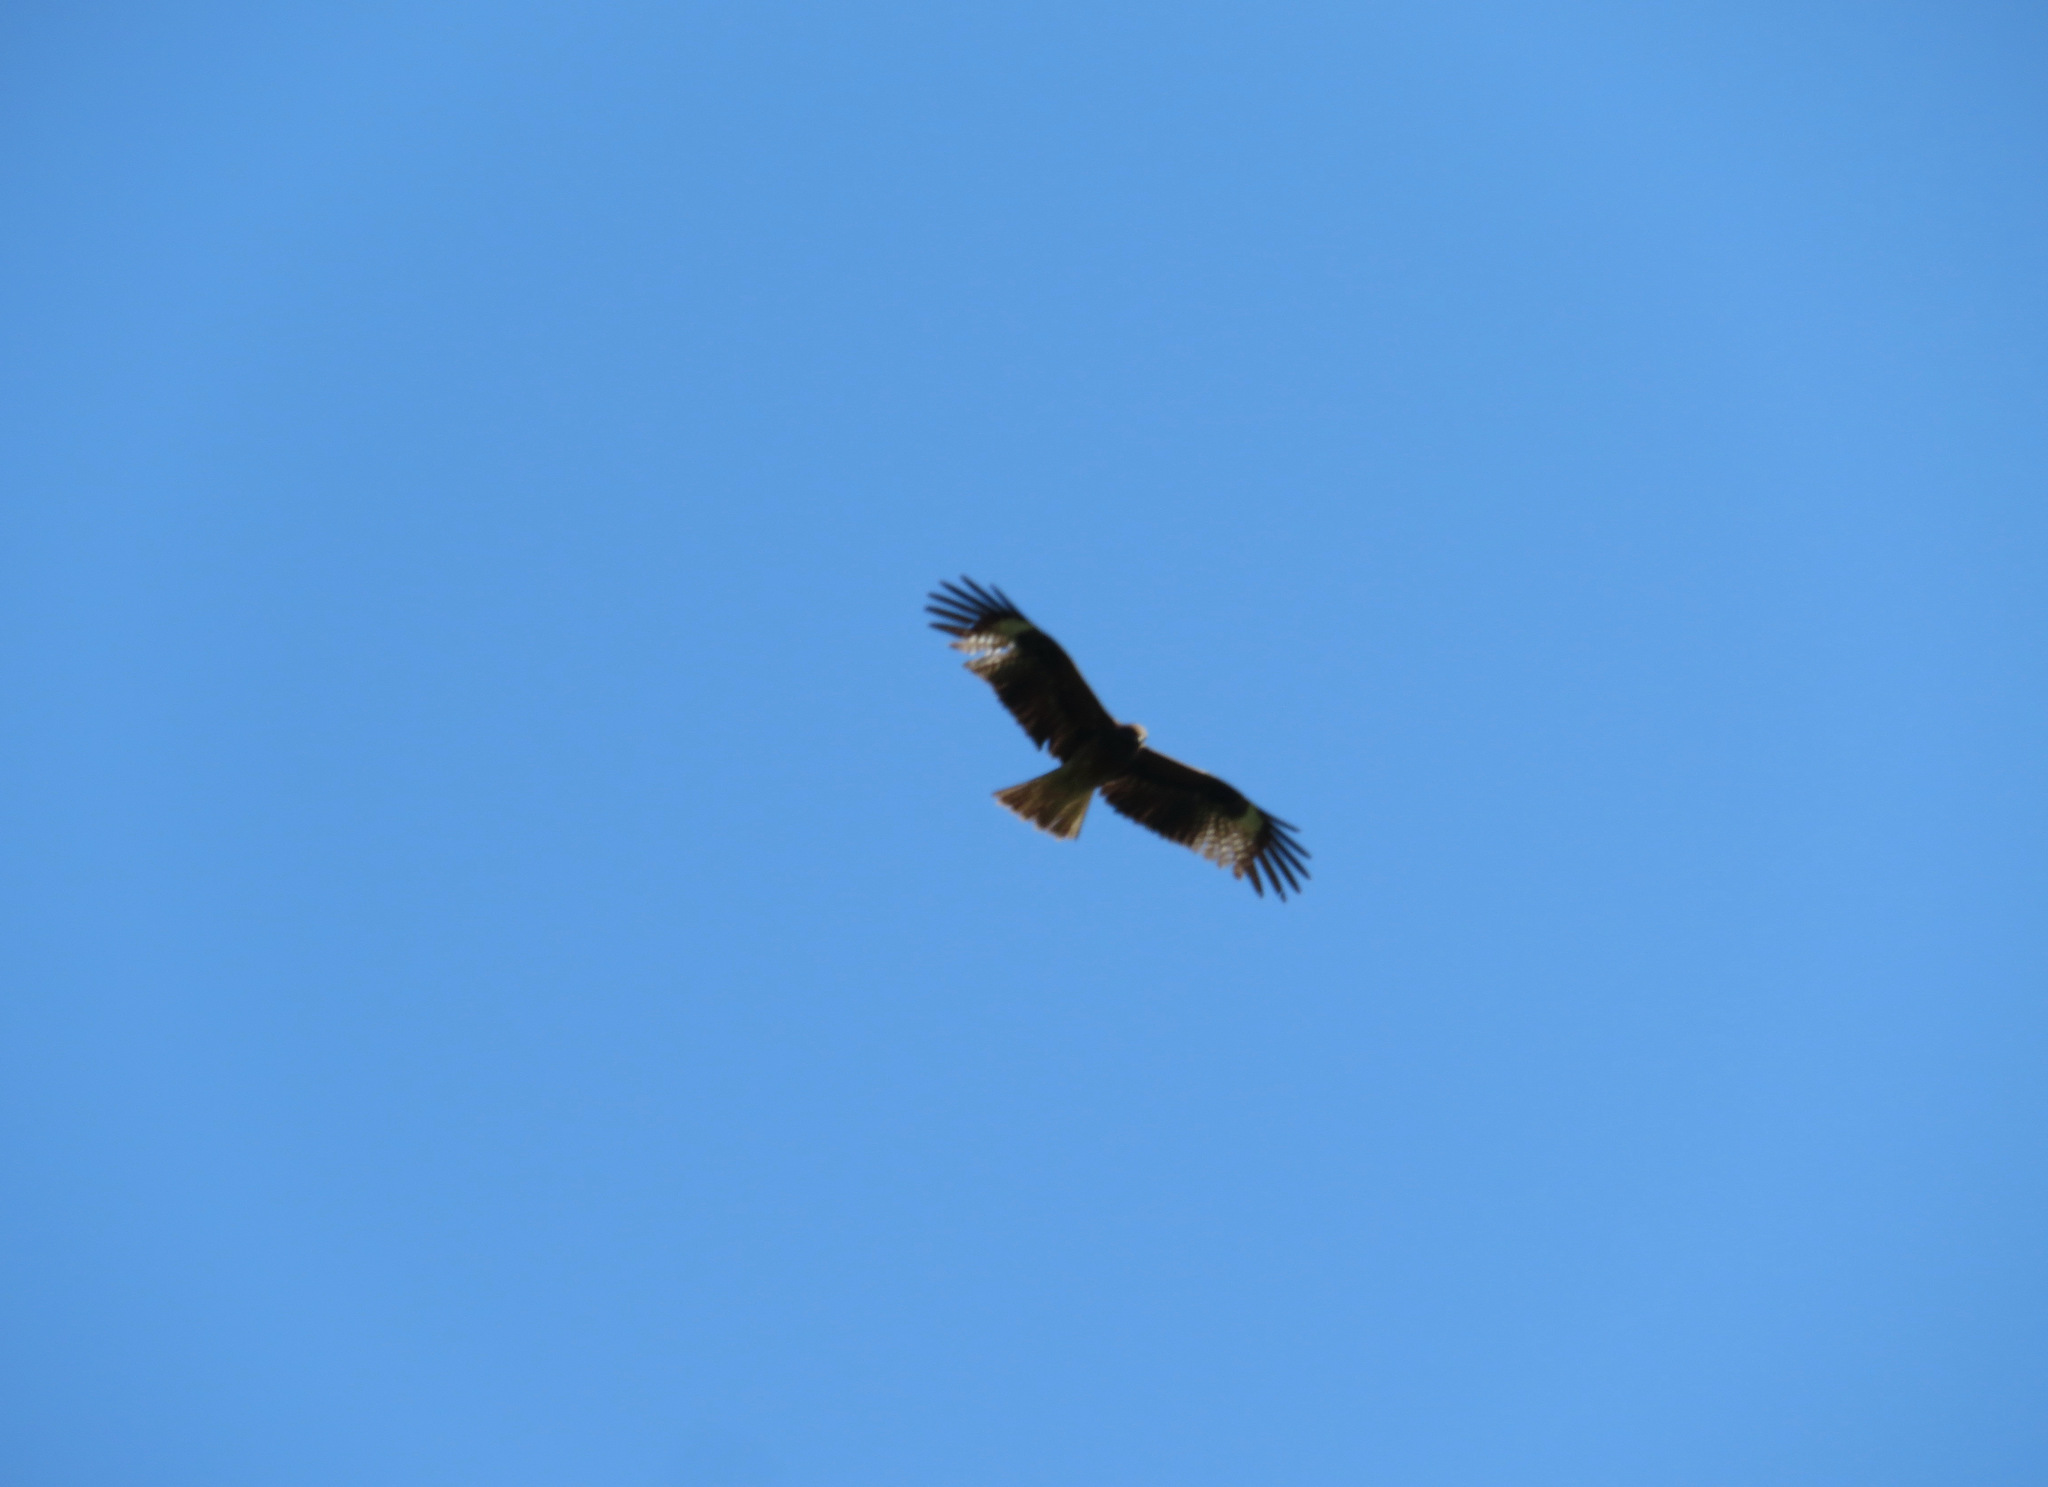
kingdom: Animalia
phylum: Chordata
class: Aves
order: Accipitriformes
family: Accipitridae
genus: Milvus
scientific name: Milvus migrans
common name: Black kite
